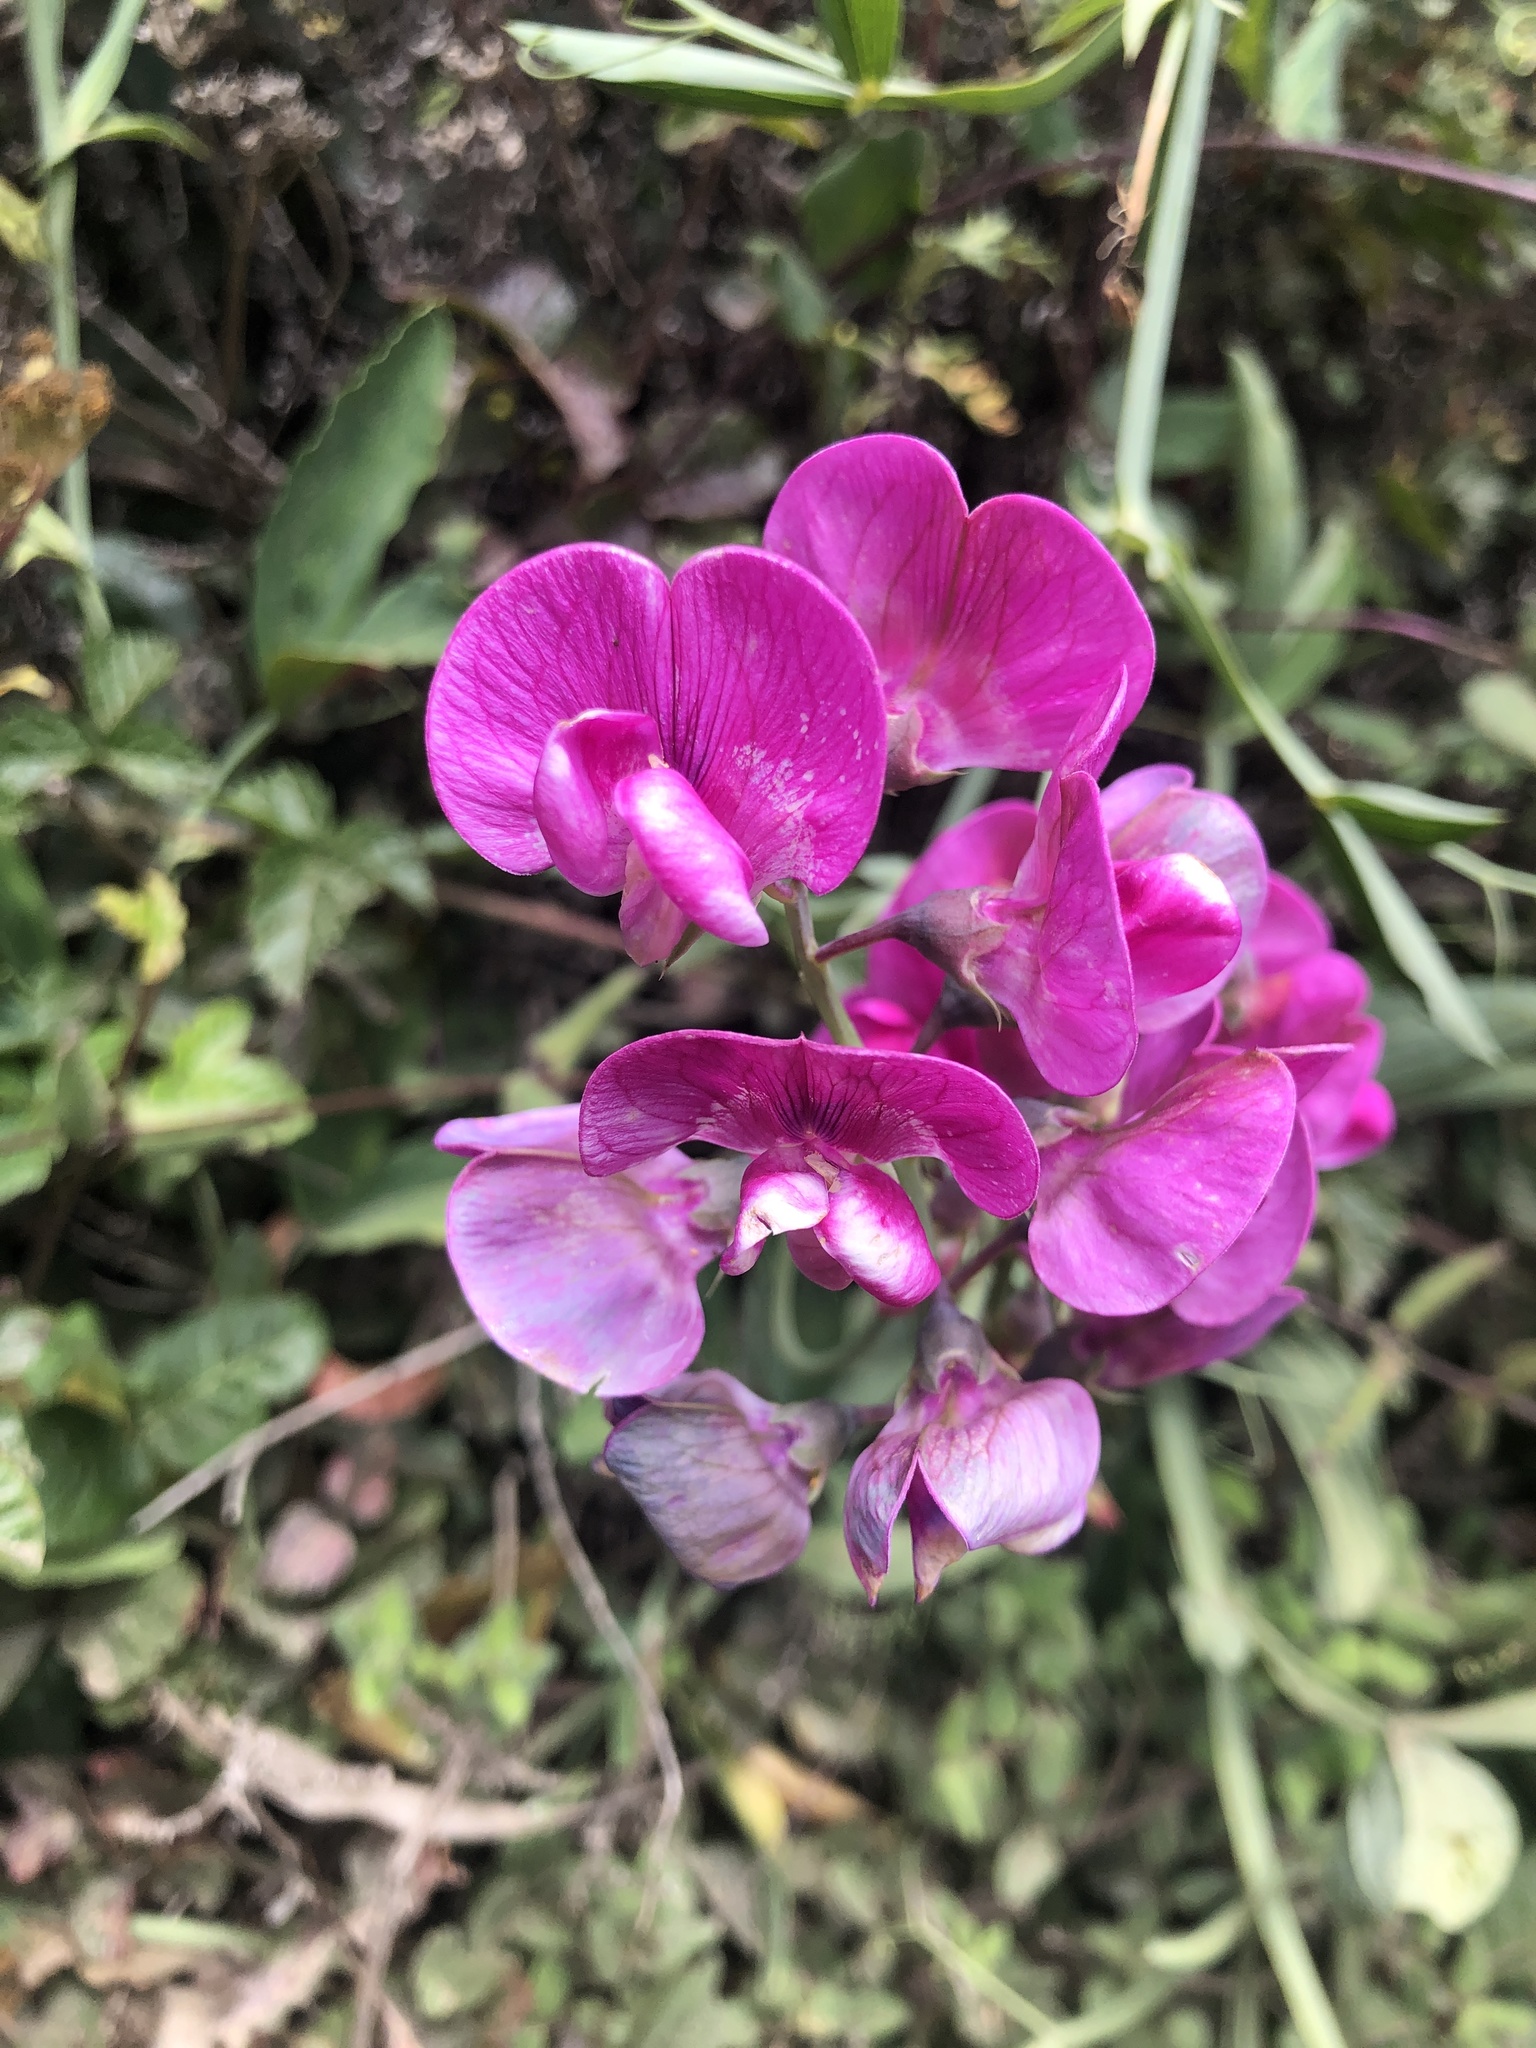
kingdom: Plantae
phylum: Tracheophyta
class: Magnoliopsida
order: Fabales
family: Fabaceae
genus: Lathyrus
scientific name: Lathyrus latifolius
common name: Perennial pea
